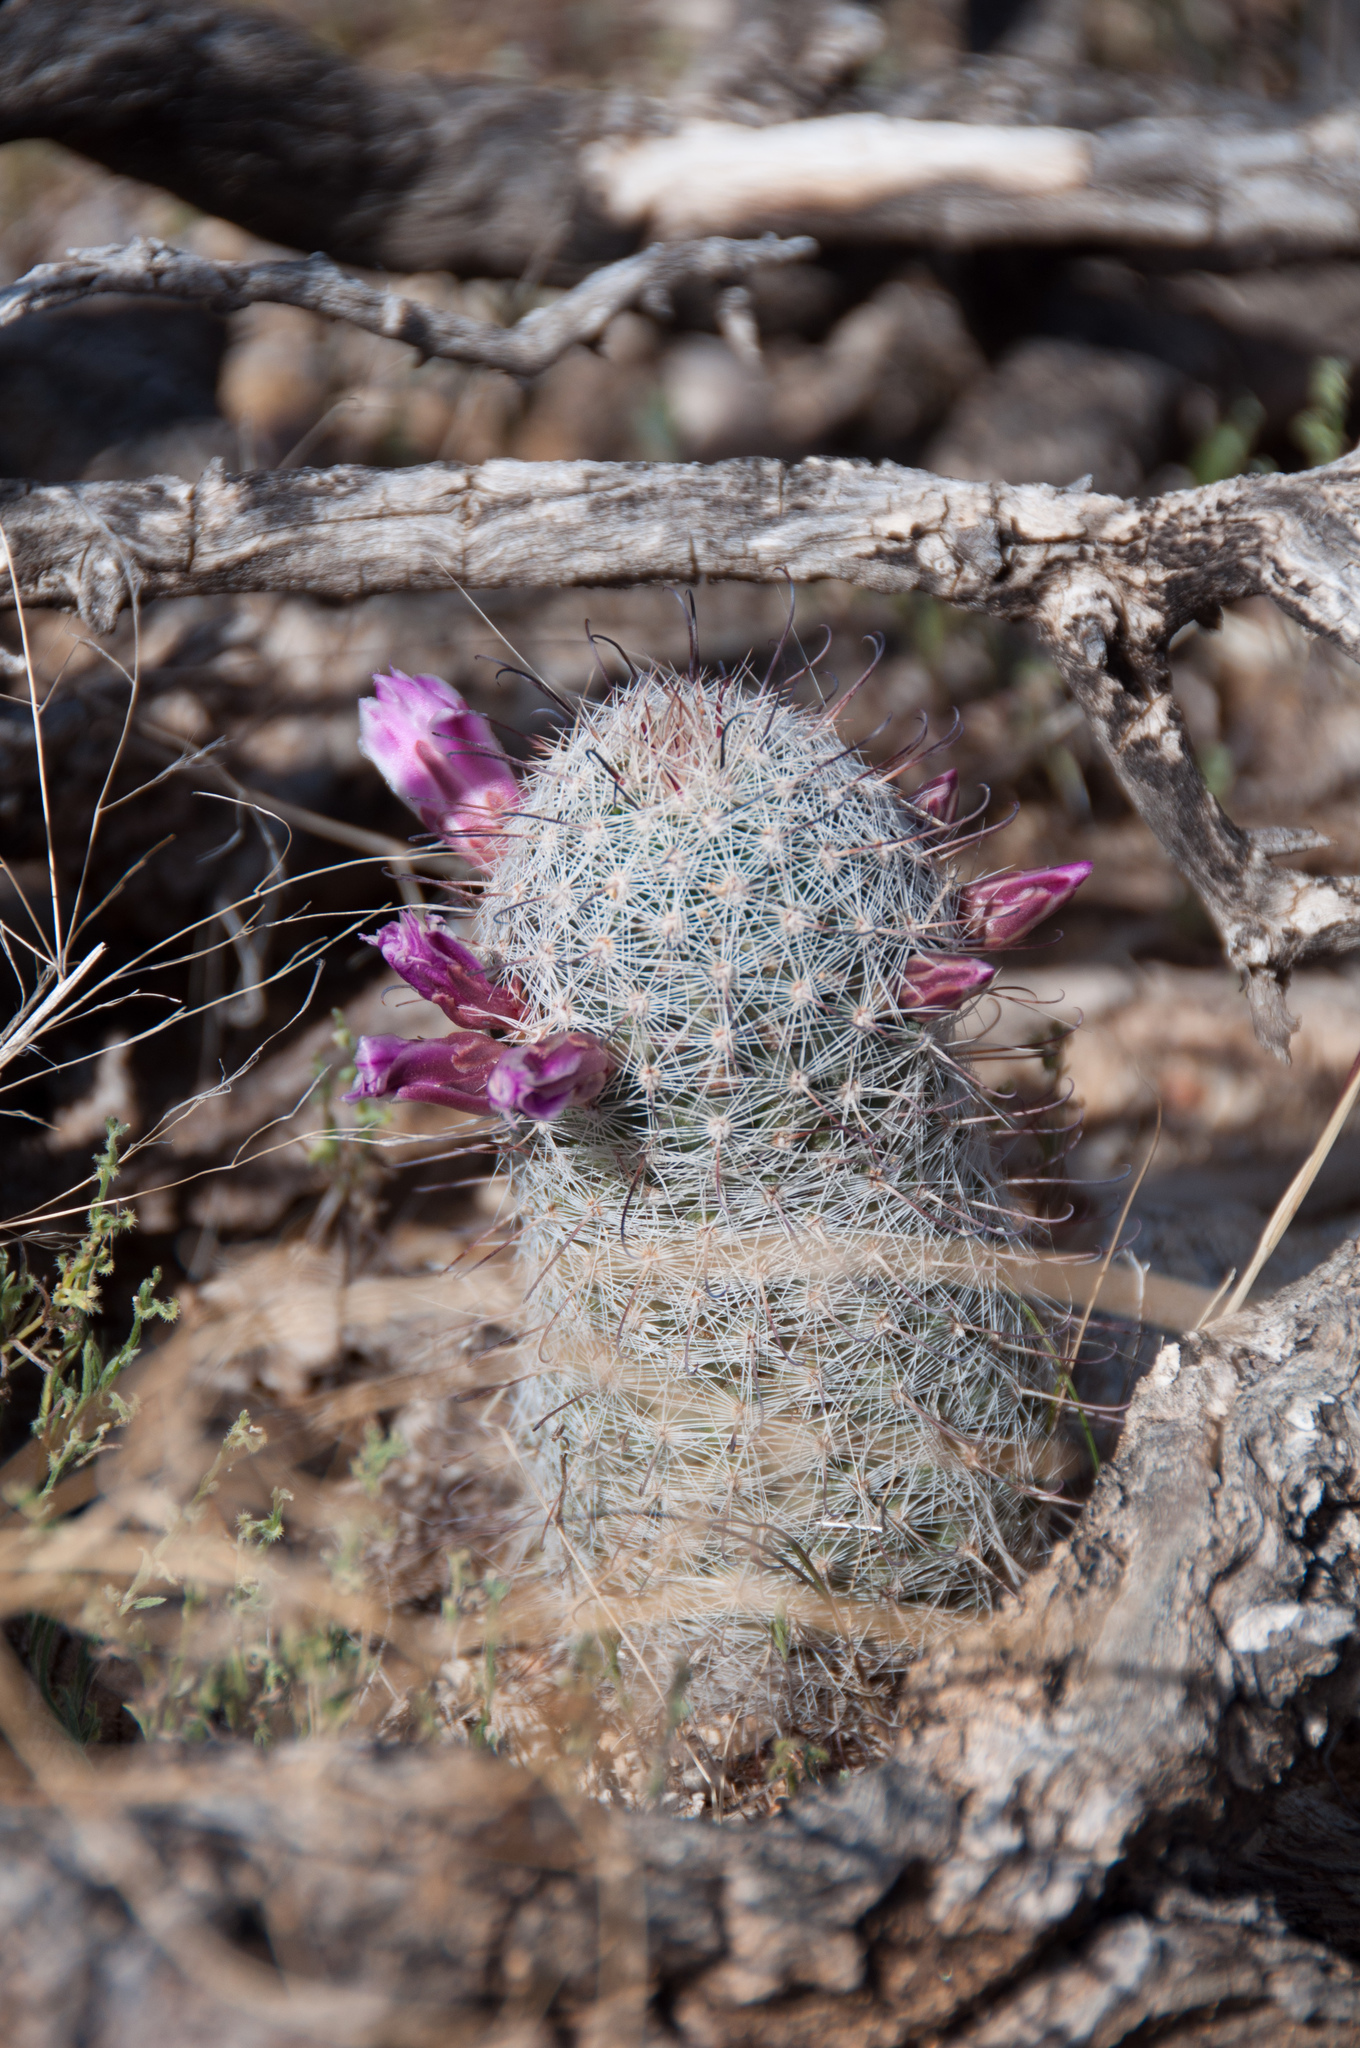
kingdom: Plantae
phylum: Tracheophyta
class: Magnoliopsida
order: Caryophyllales
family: Cactaceae
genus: Cochemiea
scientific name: Cochemiea grahamii
